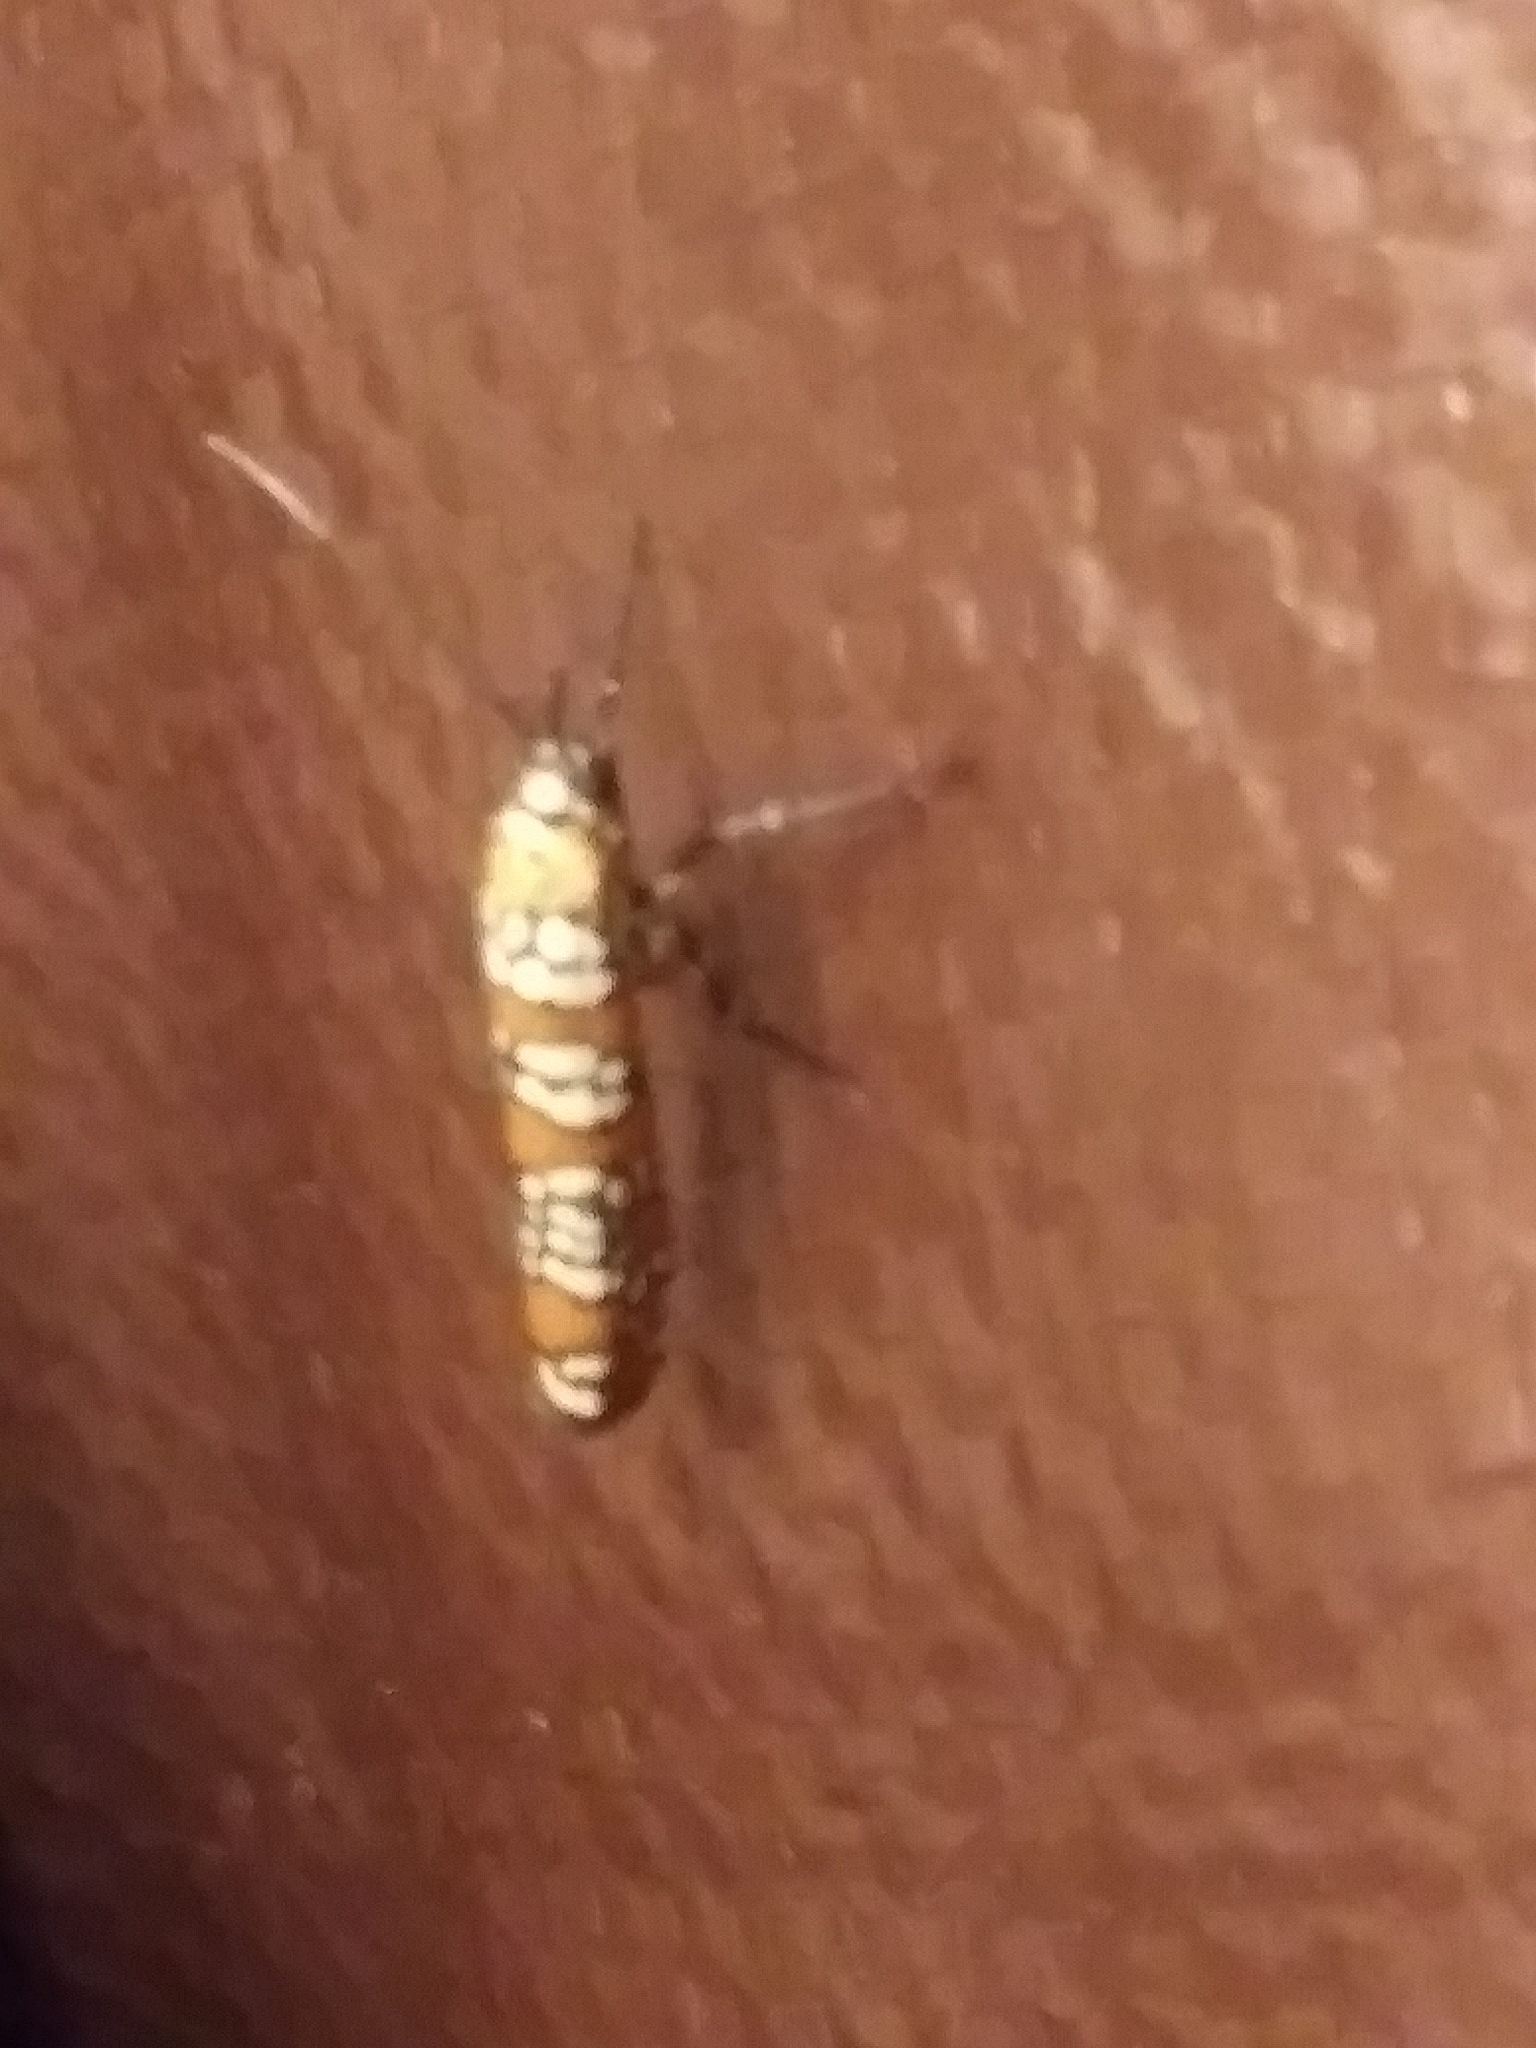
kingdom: Animalia
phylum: Arthropoda
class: Insecta
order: Lepidoptera
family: Attevidae
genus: Atteva
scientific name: Atteva punctella
